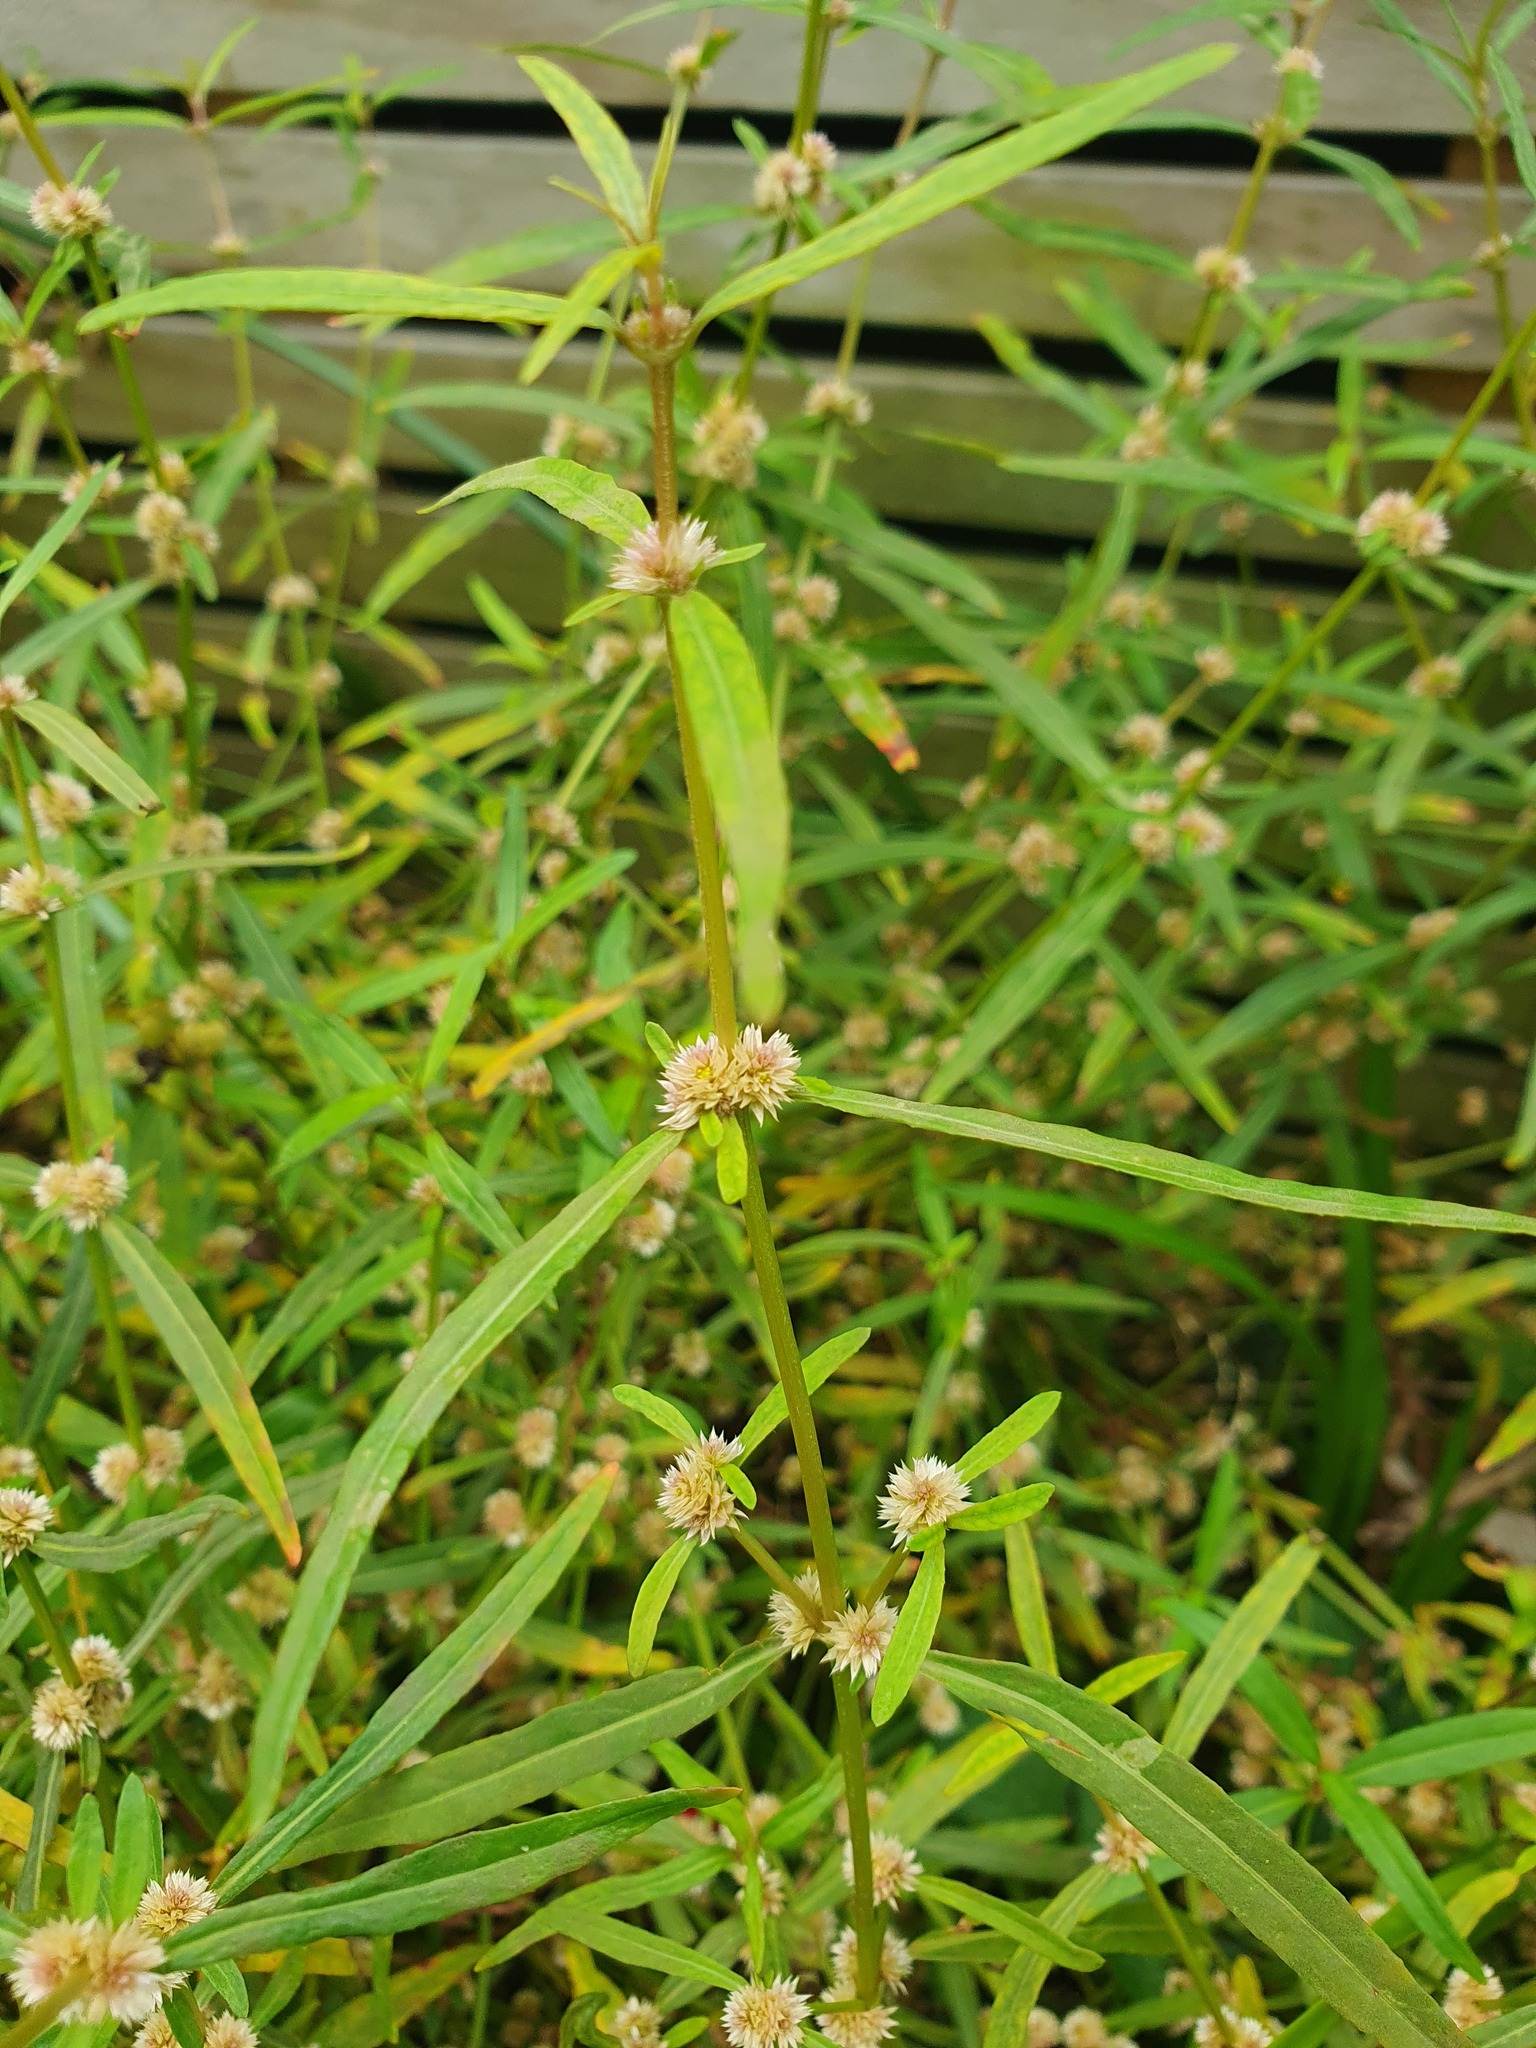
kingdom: Plantae
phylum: Tracheophyta
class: Magnoliopsida
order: Caryophyllales
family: Amaranthaceae
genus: Alternanthera
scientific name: Alternanthera nahui
